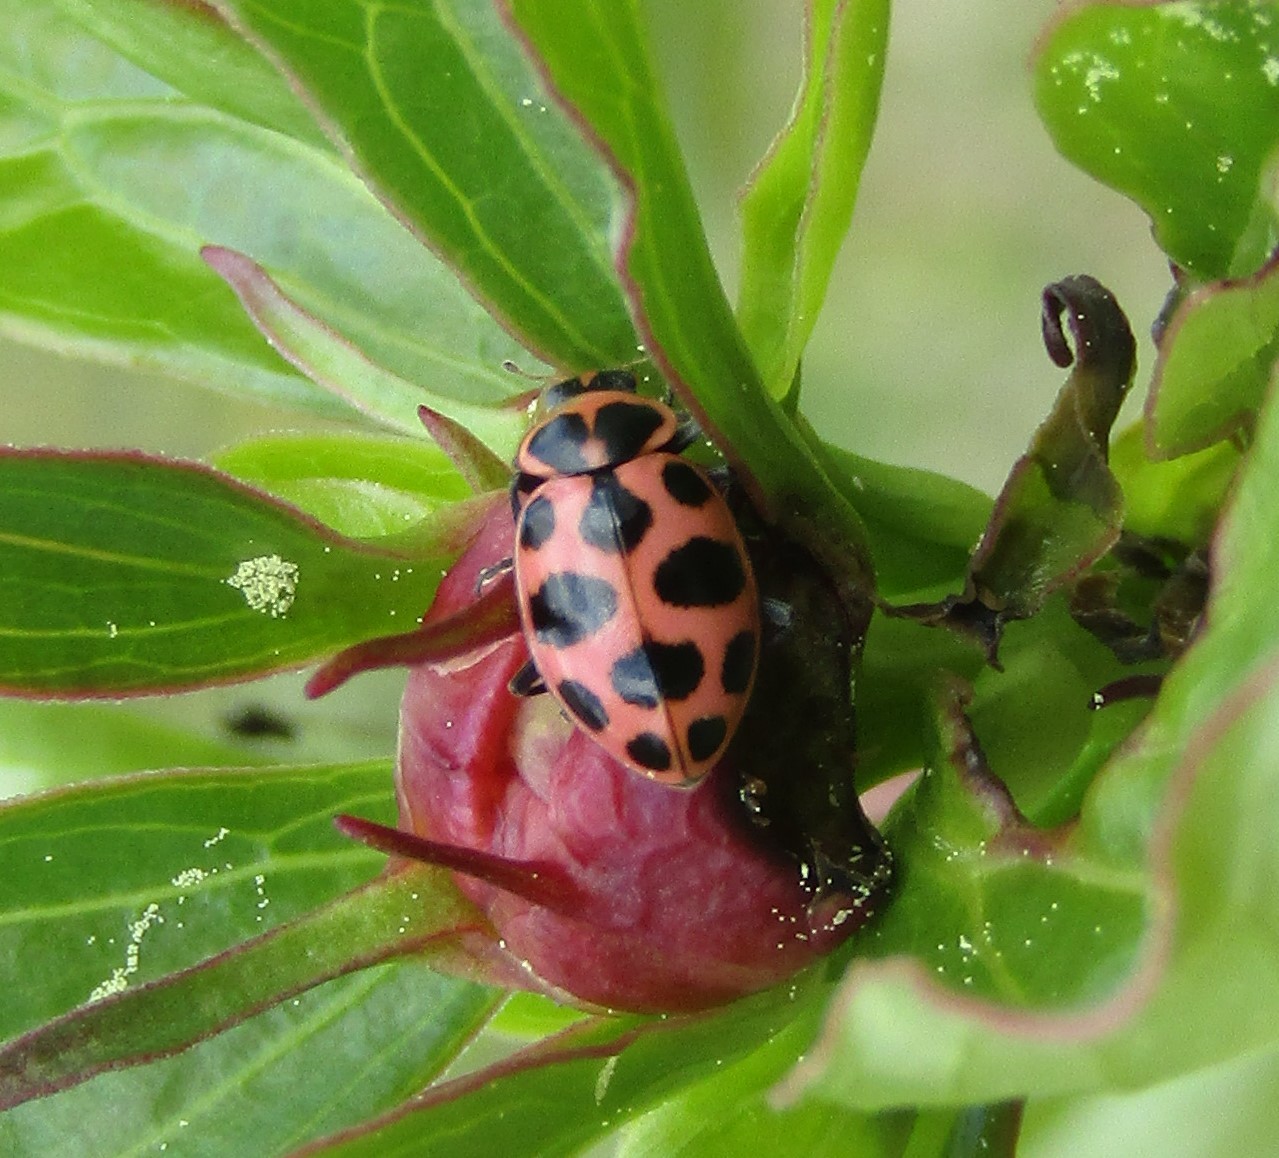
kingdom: Animalia
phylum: Arthropoda
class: Insecta
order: Coleoptera
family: Coccinellidae
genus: Coleomegilla
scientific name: Coleomegilla maculata
